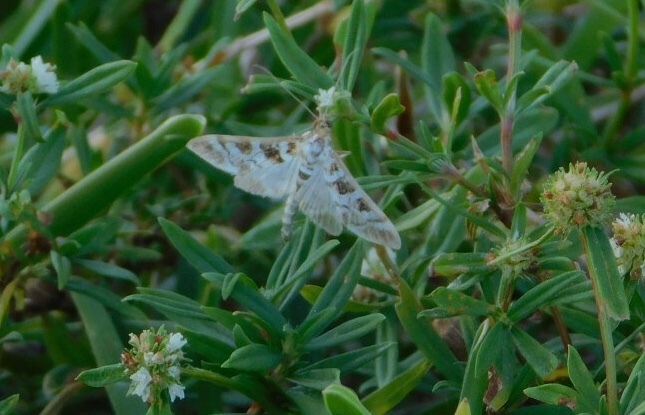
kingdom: Animalia
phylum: Arthropoda
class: Insecta
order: Lepidoptera
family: Crambidae
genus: Epipagis
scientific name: Epipagis forsythae
